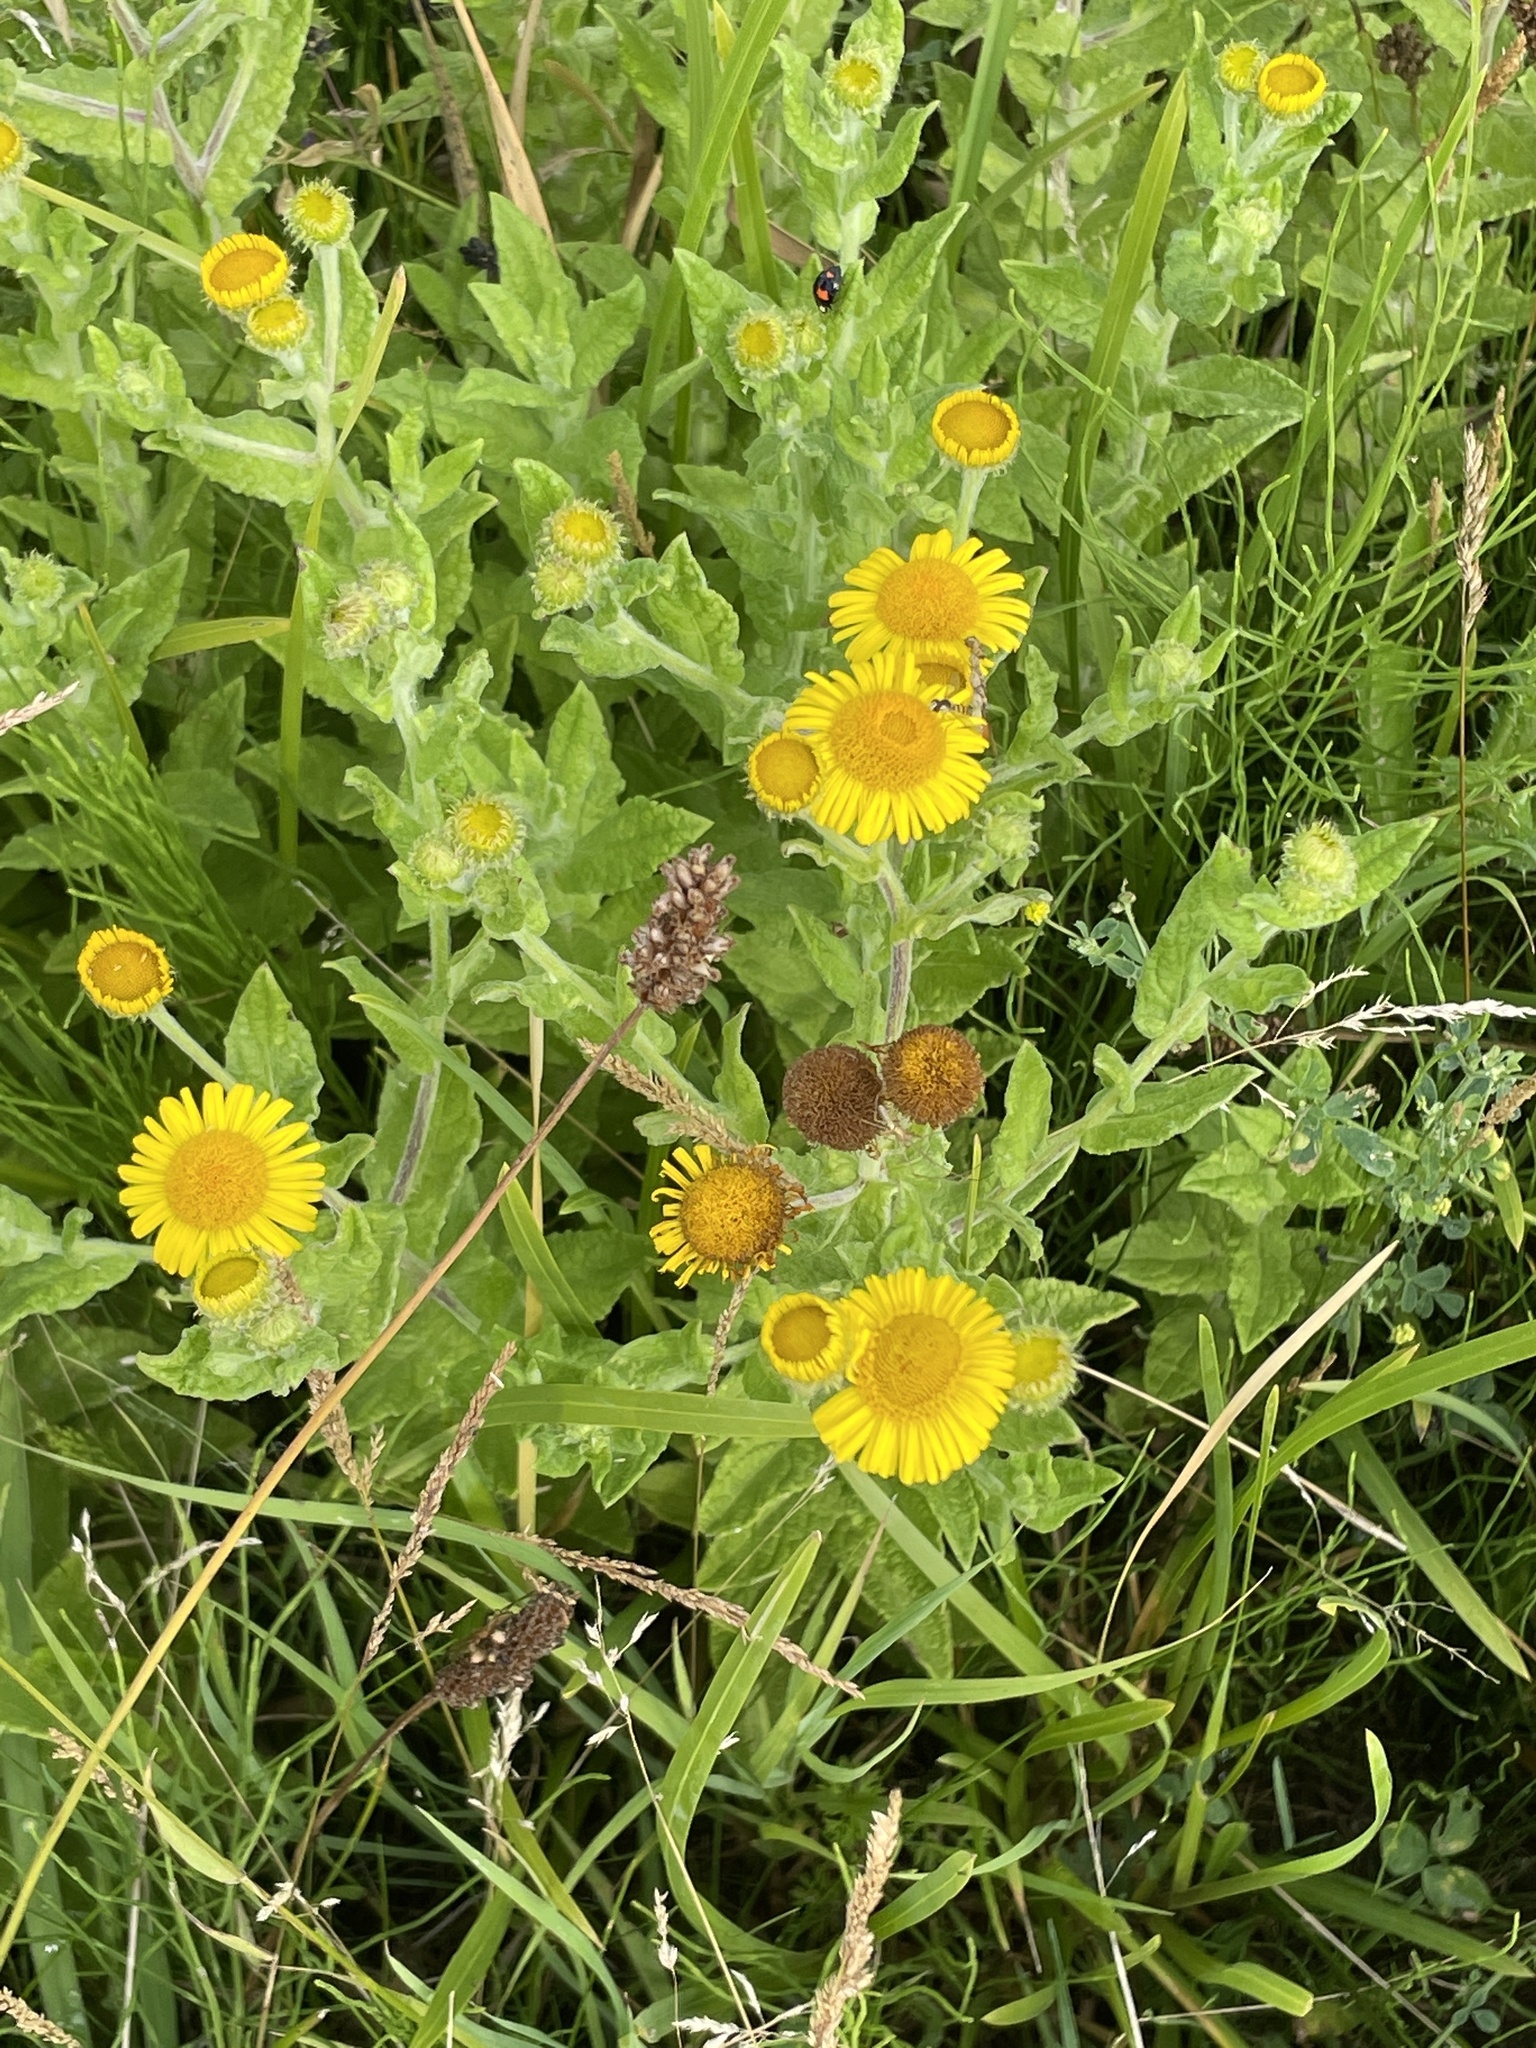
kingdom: Plantae
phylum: Tracheophyta
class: Magnoliopsida
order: Asterales
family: Asteraceae
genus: Pulicaria
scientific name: Pulicaria dysenterica
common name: Common fleabane
